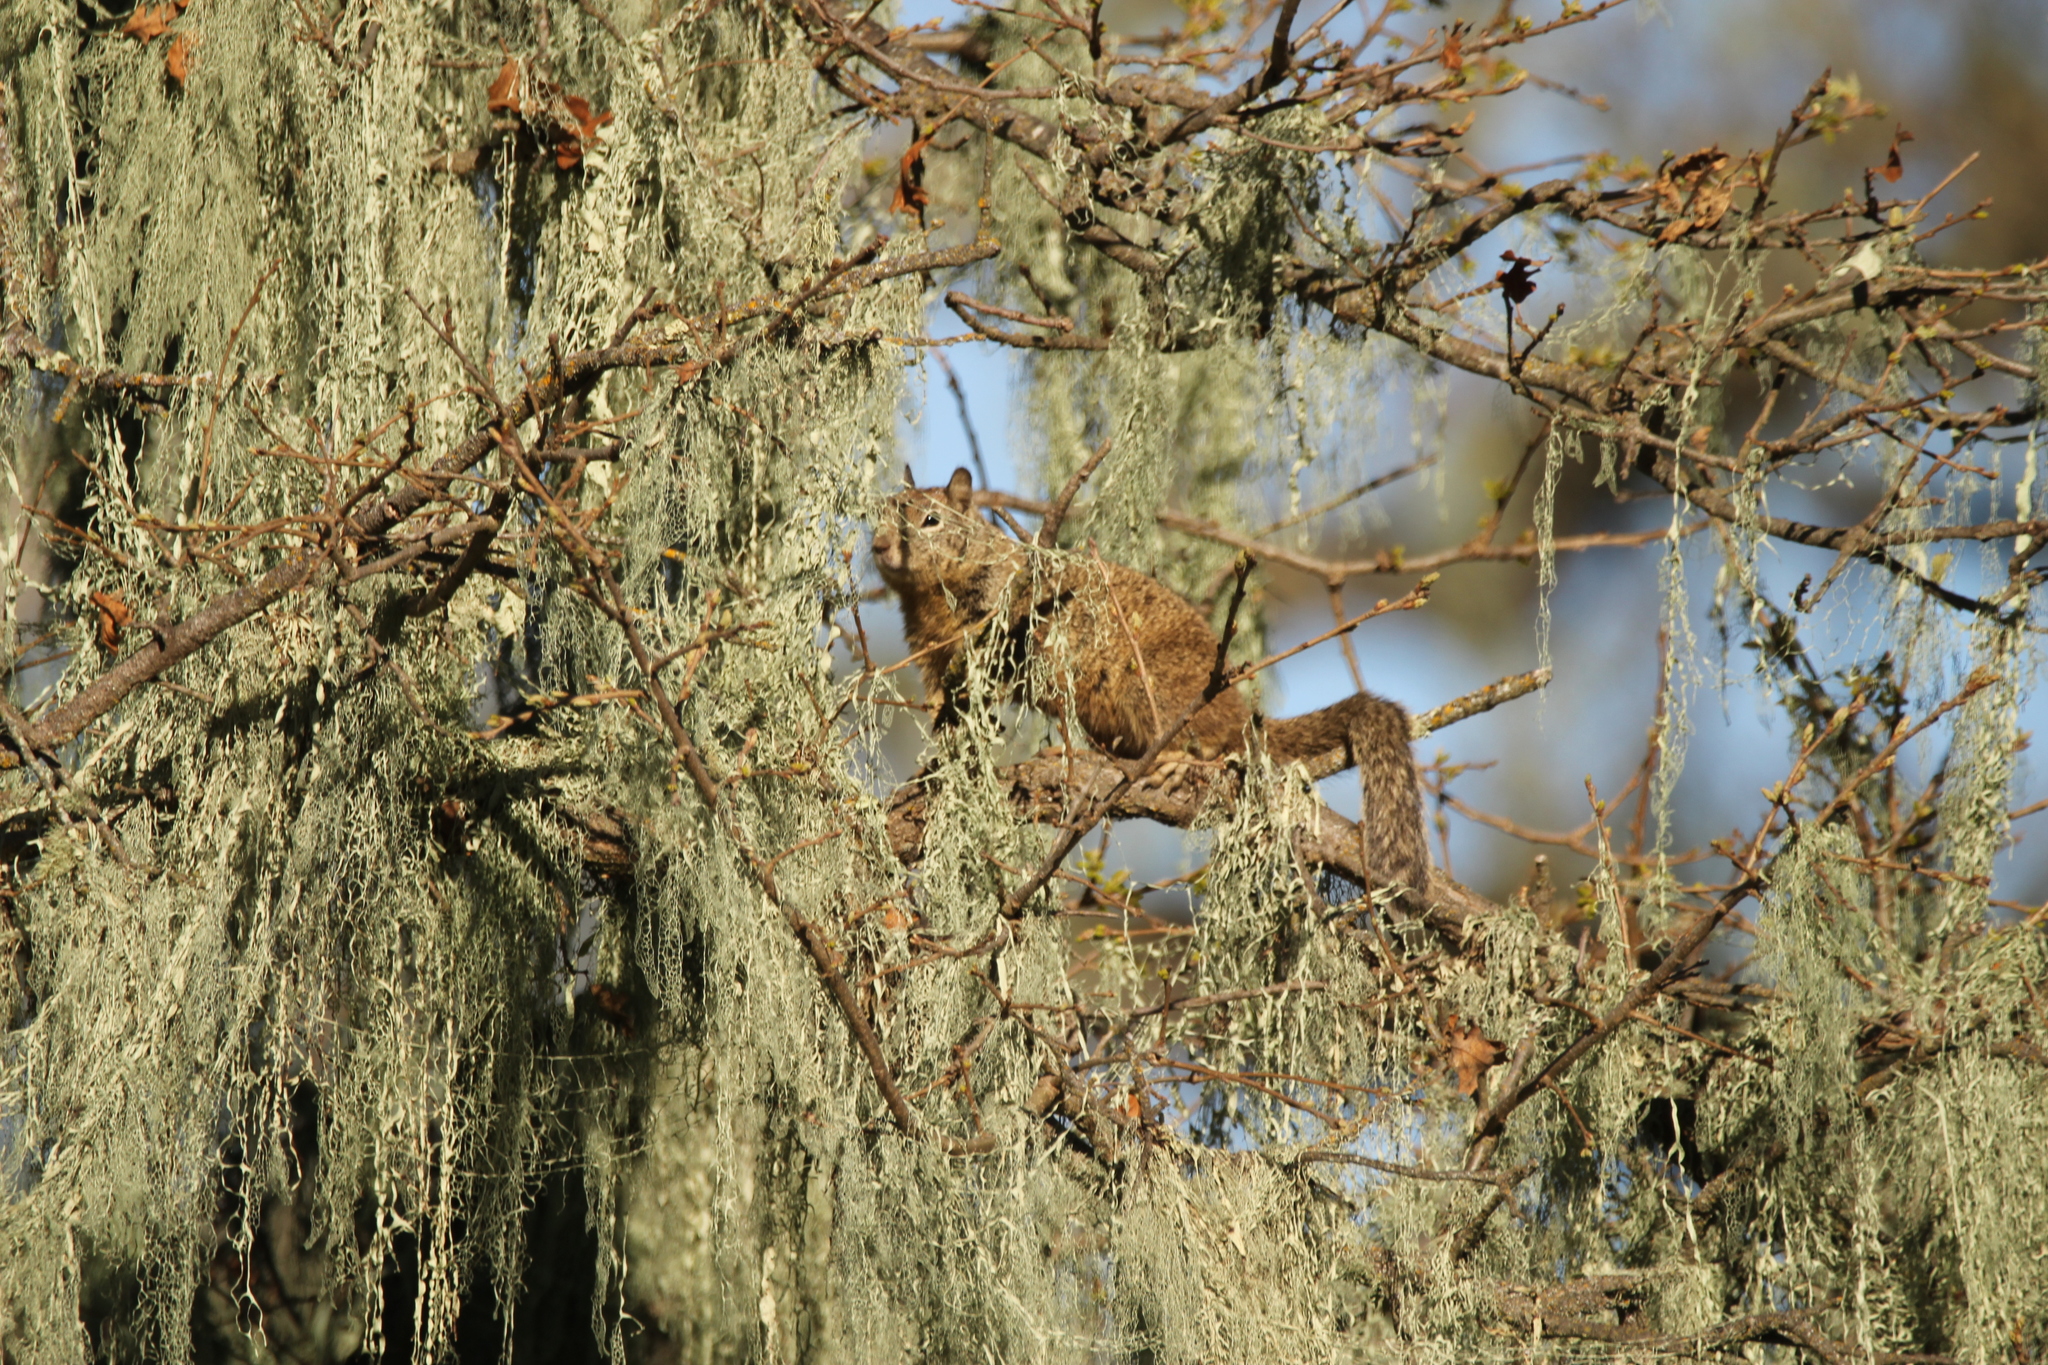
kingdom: Animalia
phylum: Chordata
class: Mammalia
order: Rodentia
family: Sciuridae
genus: Otospermophilus
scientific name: Otospermophilus beecheyi
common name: California ground squirrel
